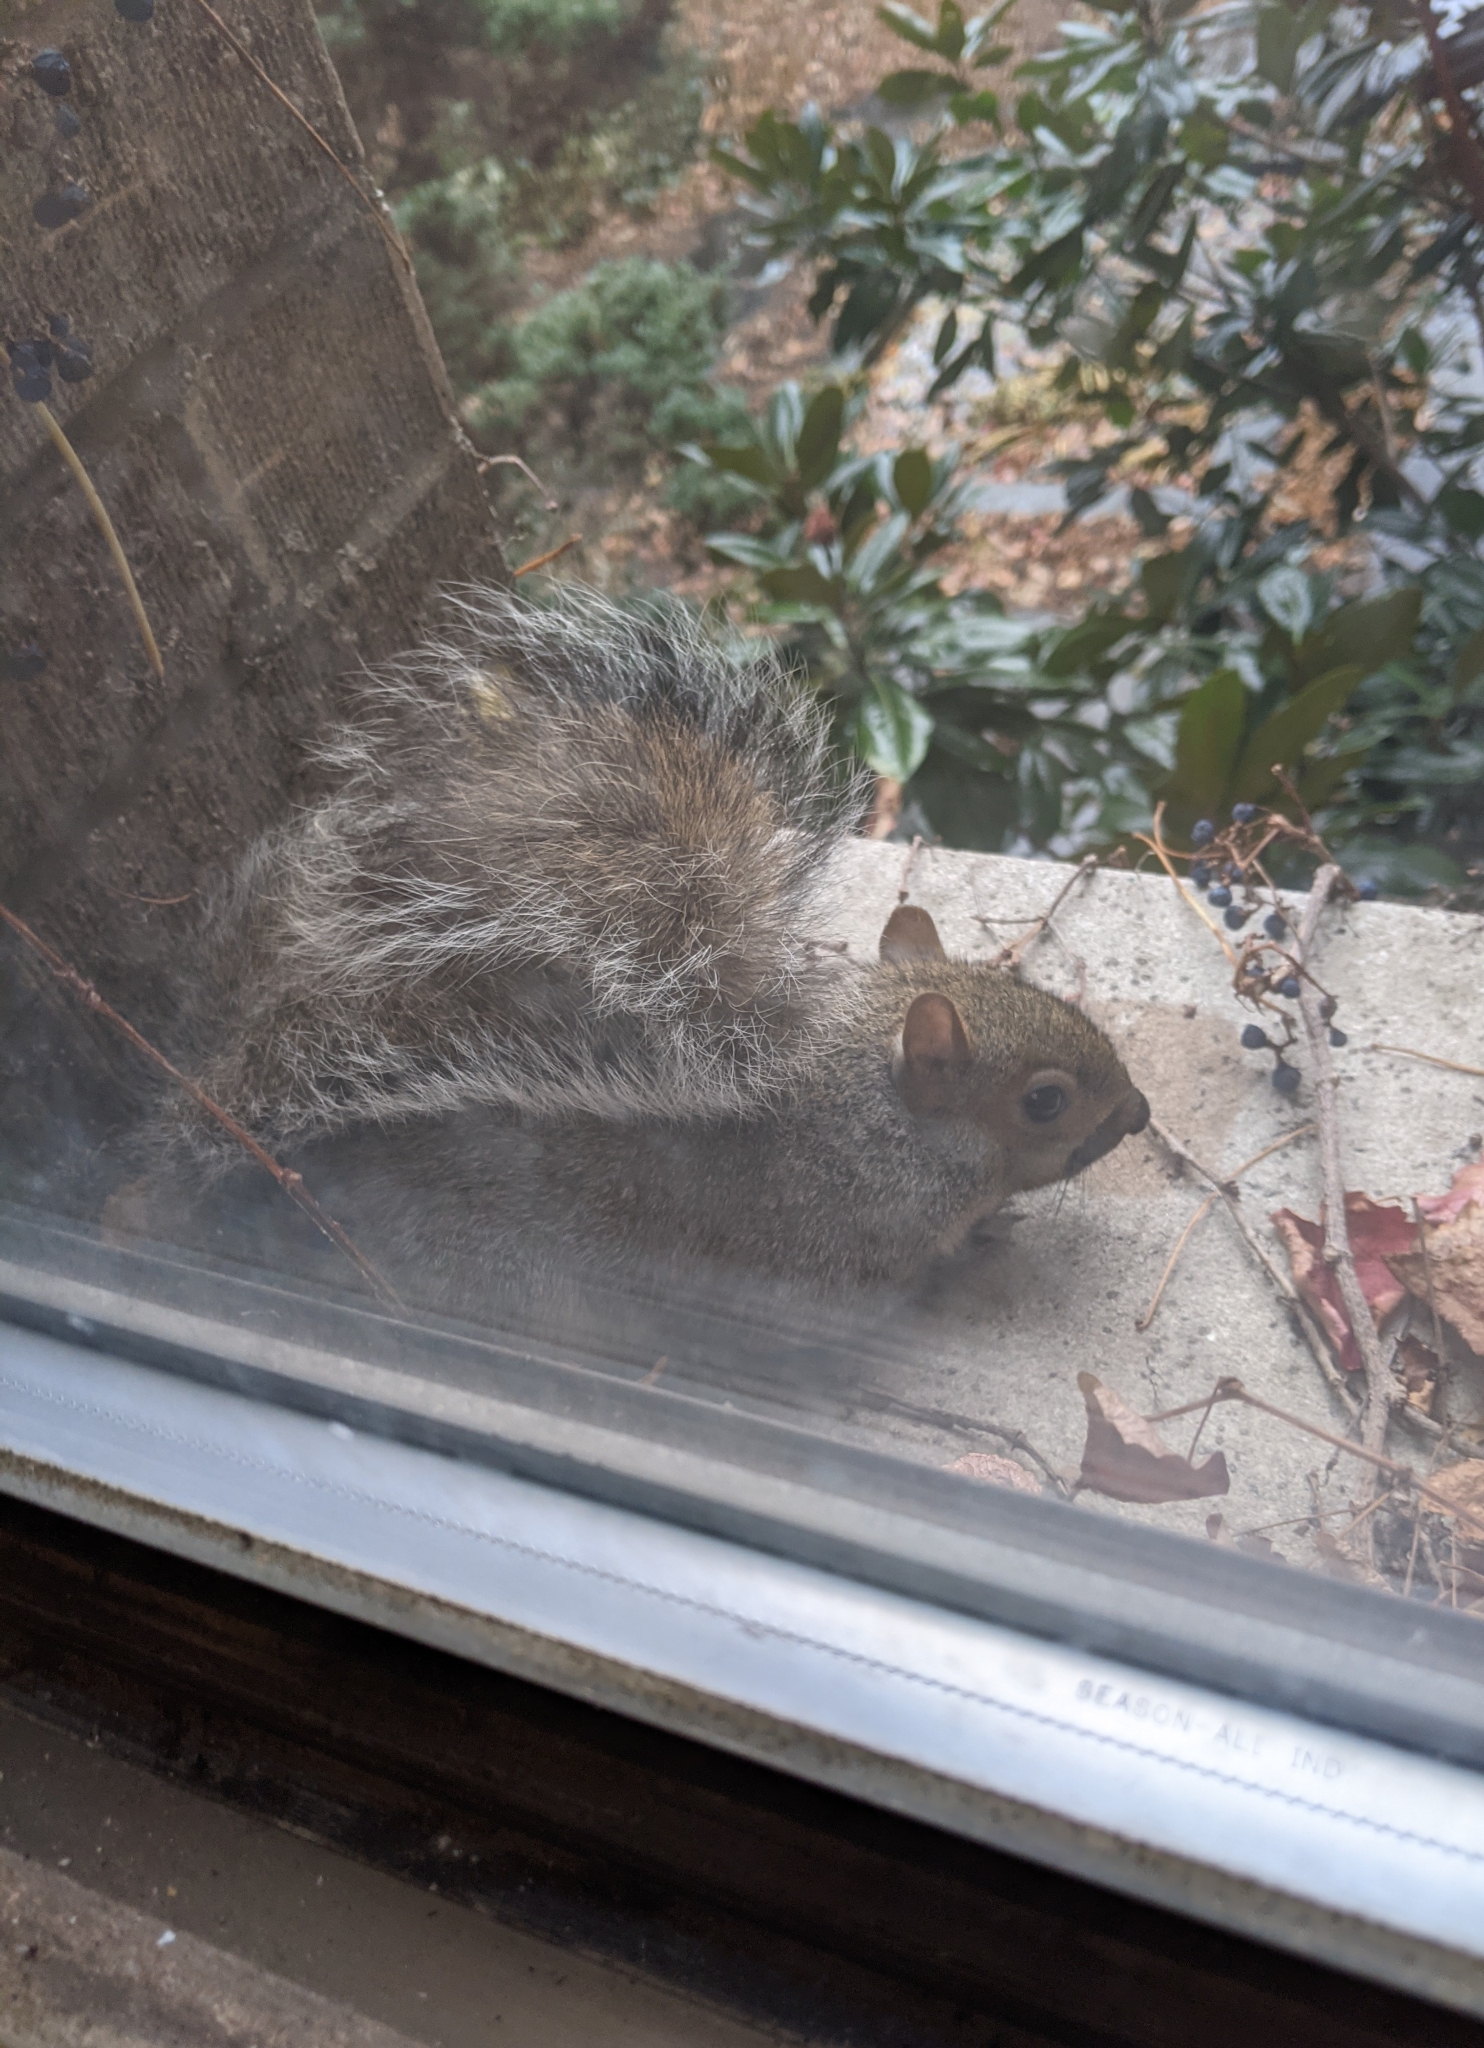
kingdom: Animalia
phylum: Chordata
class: Mammalia
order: Rodentia
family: Sciuridae
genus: Sciurus
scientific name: Sciurus carolinensis
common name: Eastern gray squirrel
